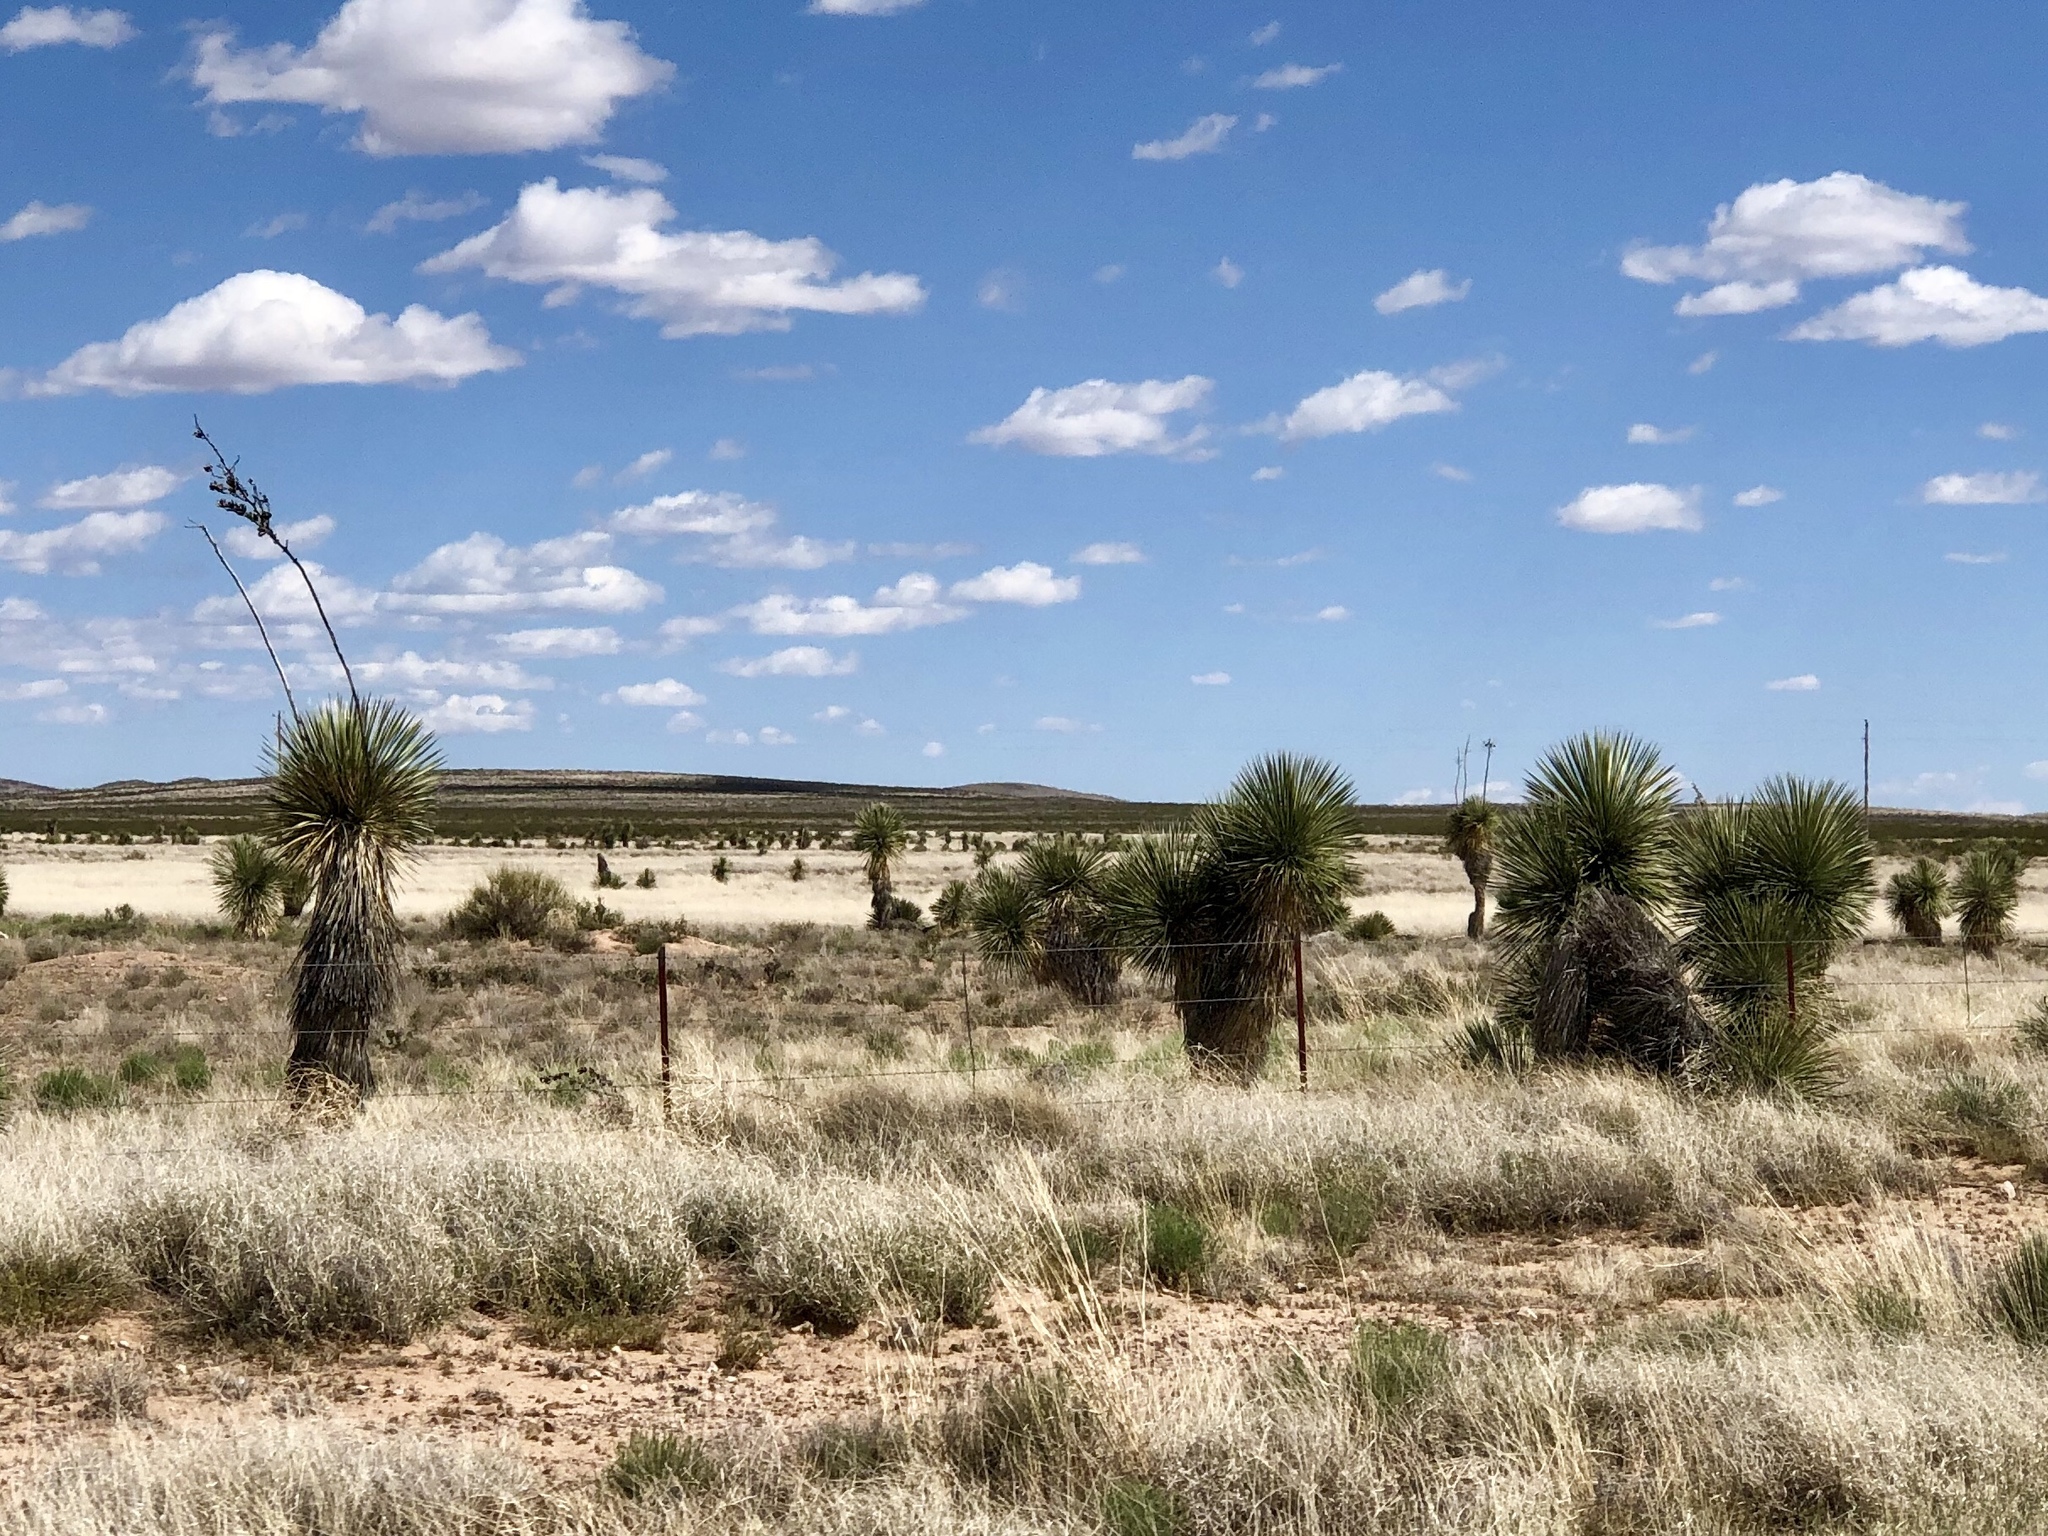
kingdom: Plantae
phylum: Tracheophyta
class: Liliopsida
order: Asparagales
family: Asparagaceae
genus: Yucca
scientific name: Yucca elata
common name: Palmella
